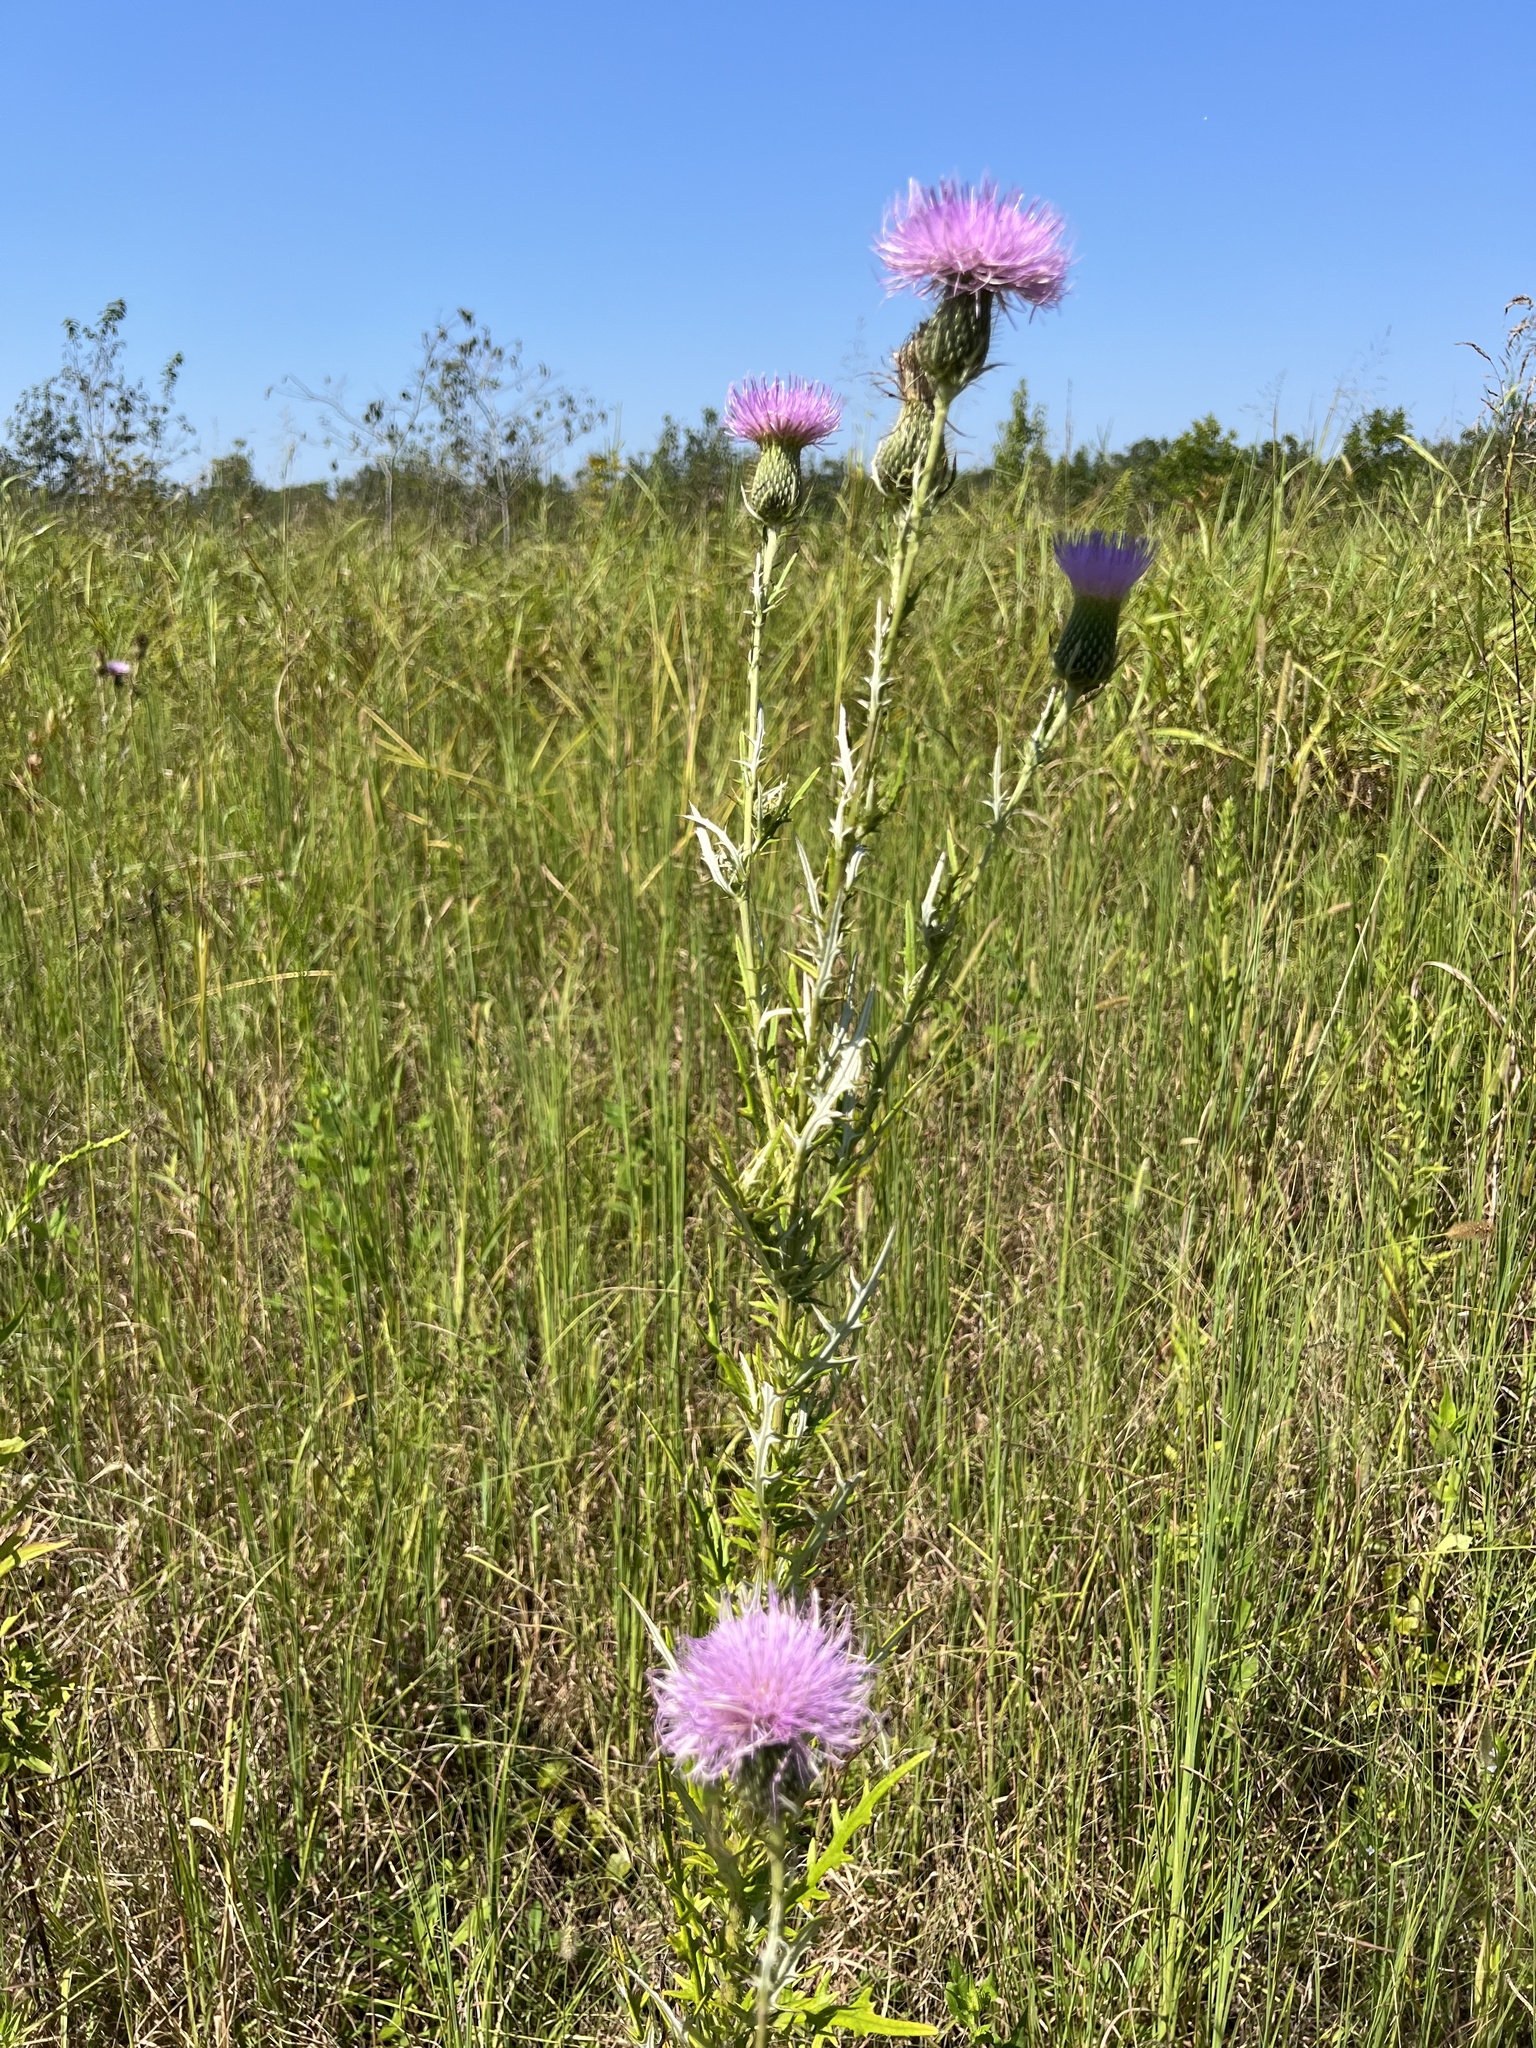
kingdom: Plantae
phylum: Tracheophyta
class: Magnoliopsida
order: Asterales
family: Asteraceae
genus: Cirsium
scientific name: Cirsium discolor
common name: Field thistle
